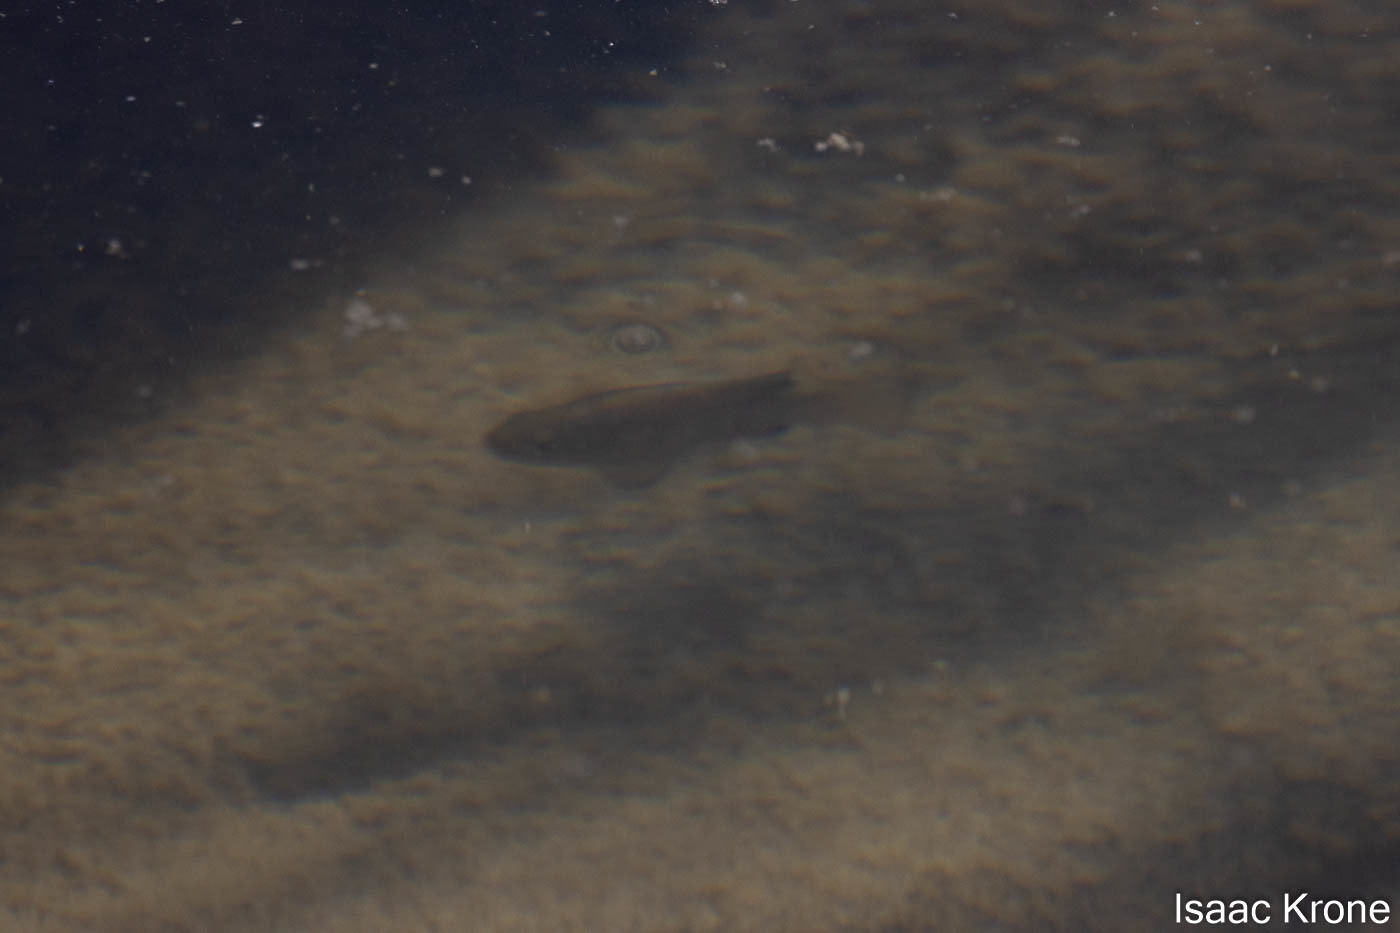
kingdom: Animalia
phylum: Chordata
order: Cyprinodontiformes
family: Cyprinodontidae
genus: Cyprinodon
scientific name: Cyprinodon eremus
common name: Sonoyta pupfish
